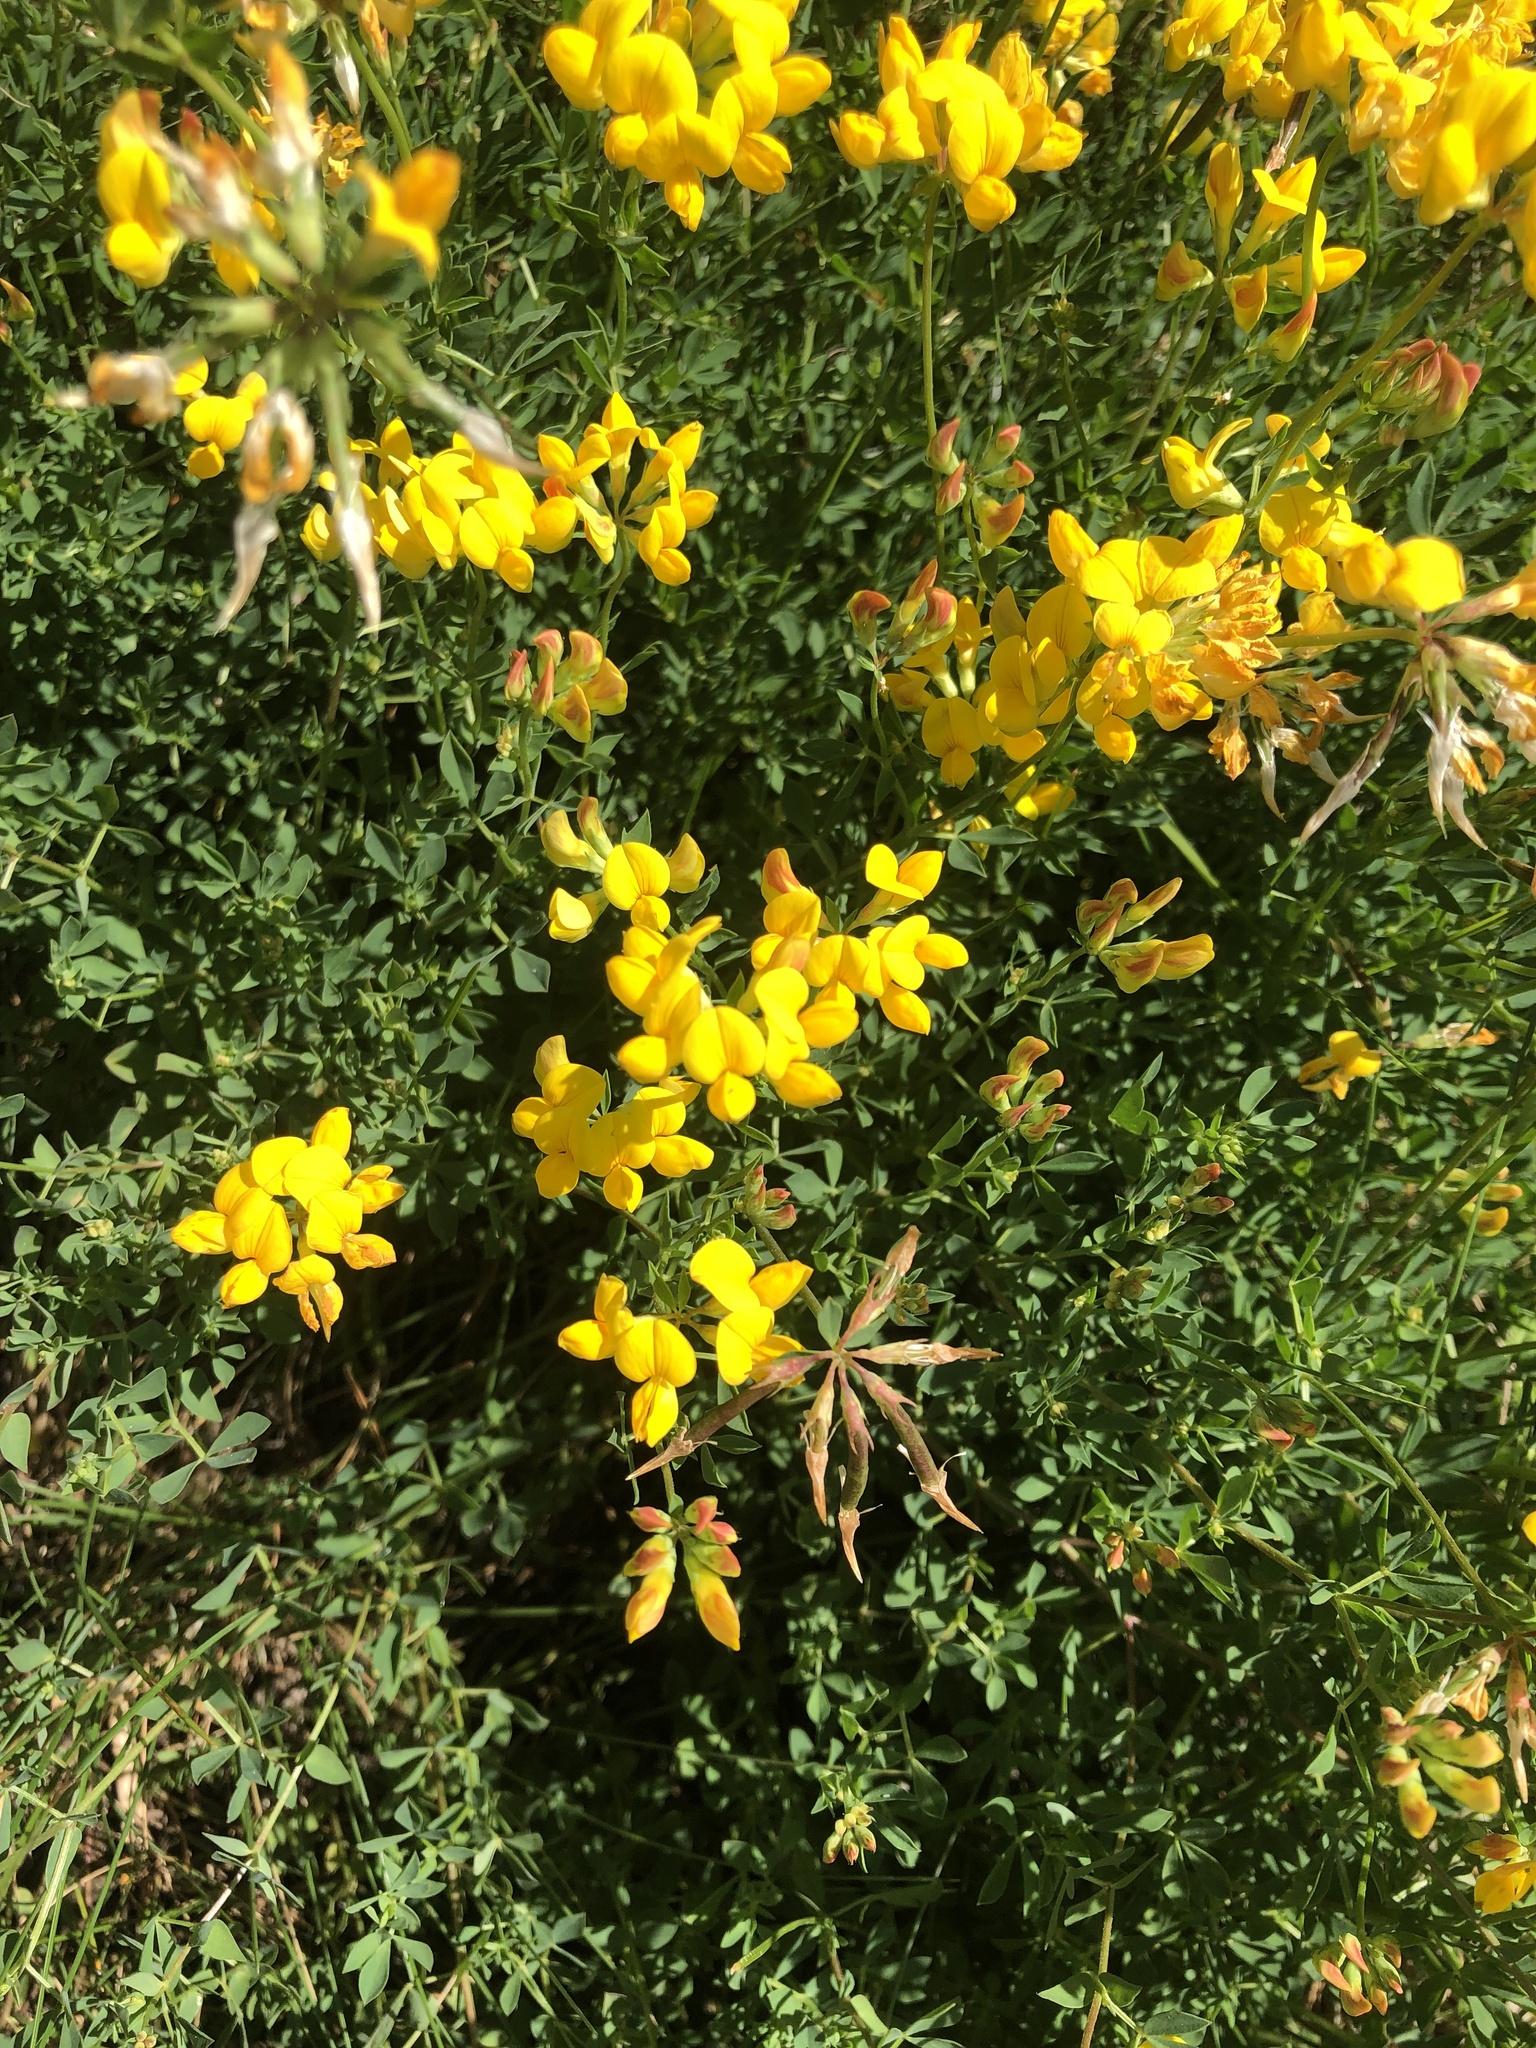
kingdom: Plantae
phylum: Tracheophyta
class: Magnoliopsida
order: Fabales
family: Fabaceae
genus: Lotus
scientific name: Lotus corniculatus
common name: Common bird's-foot-trefoil
